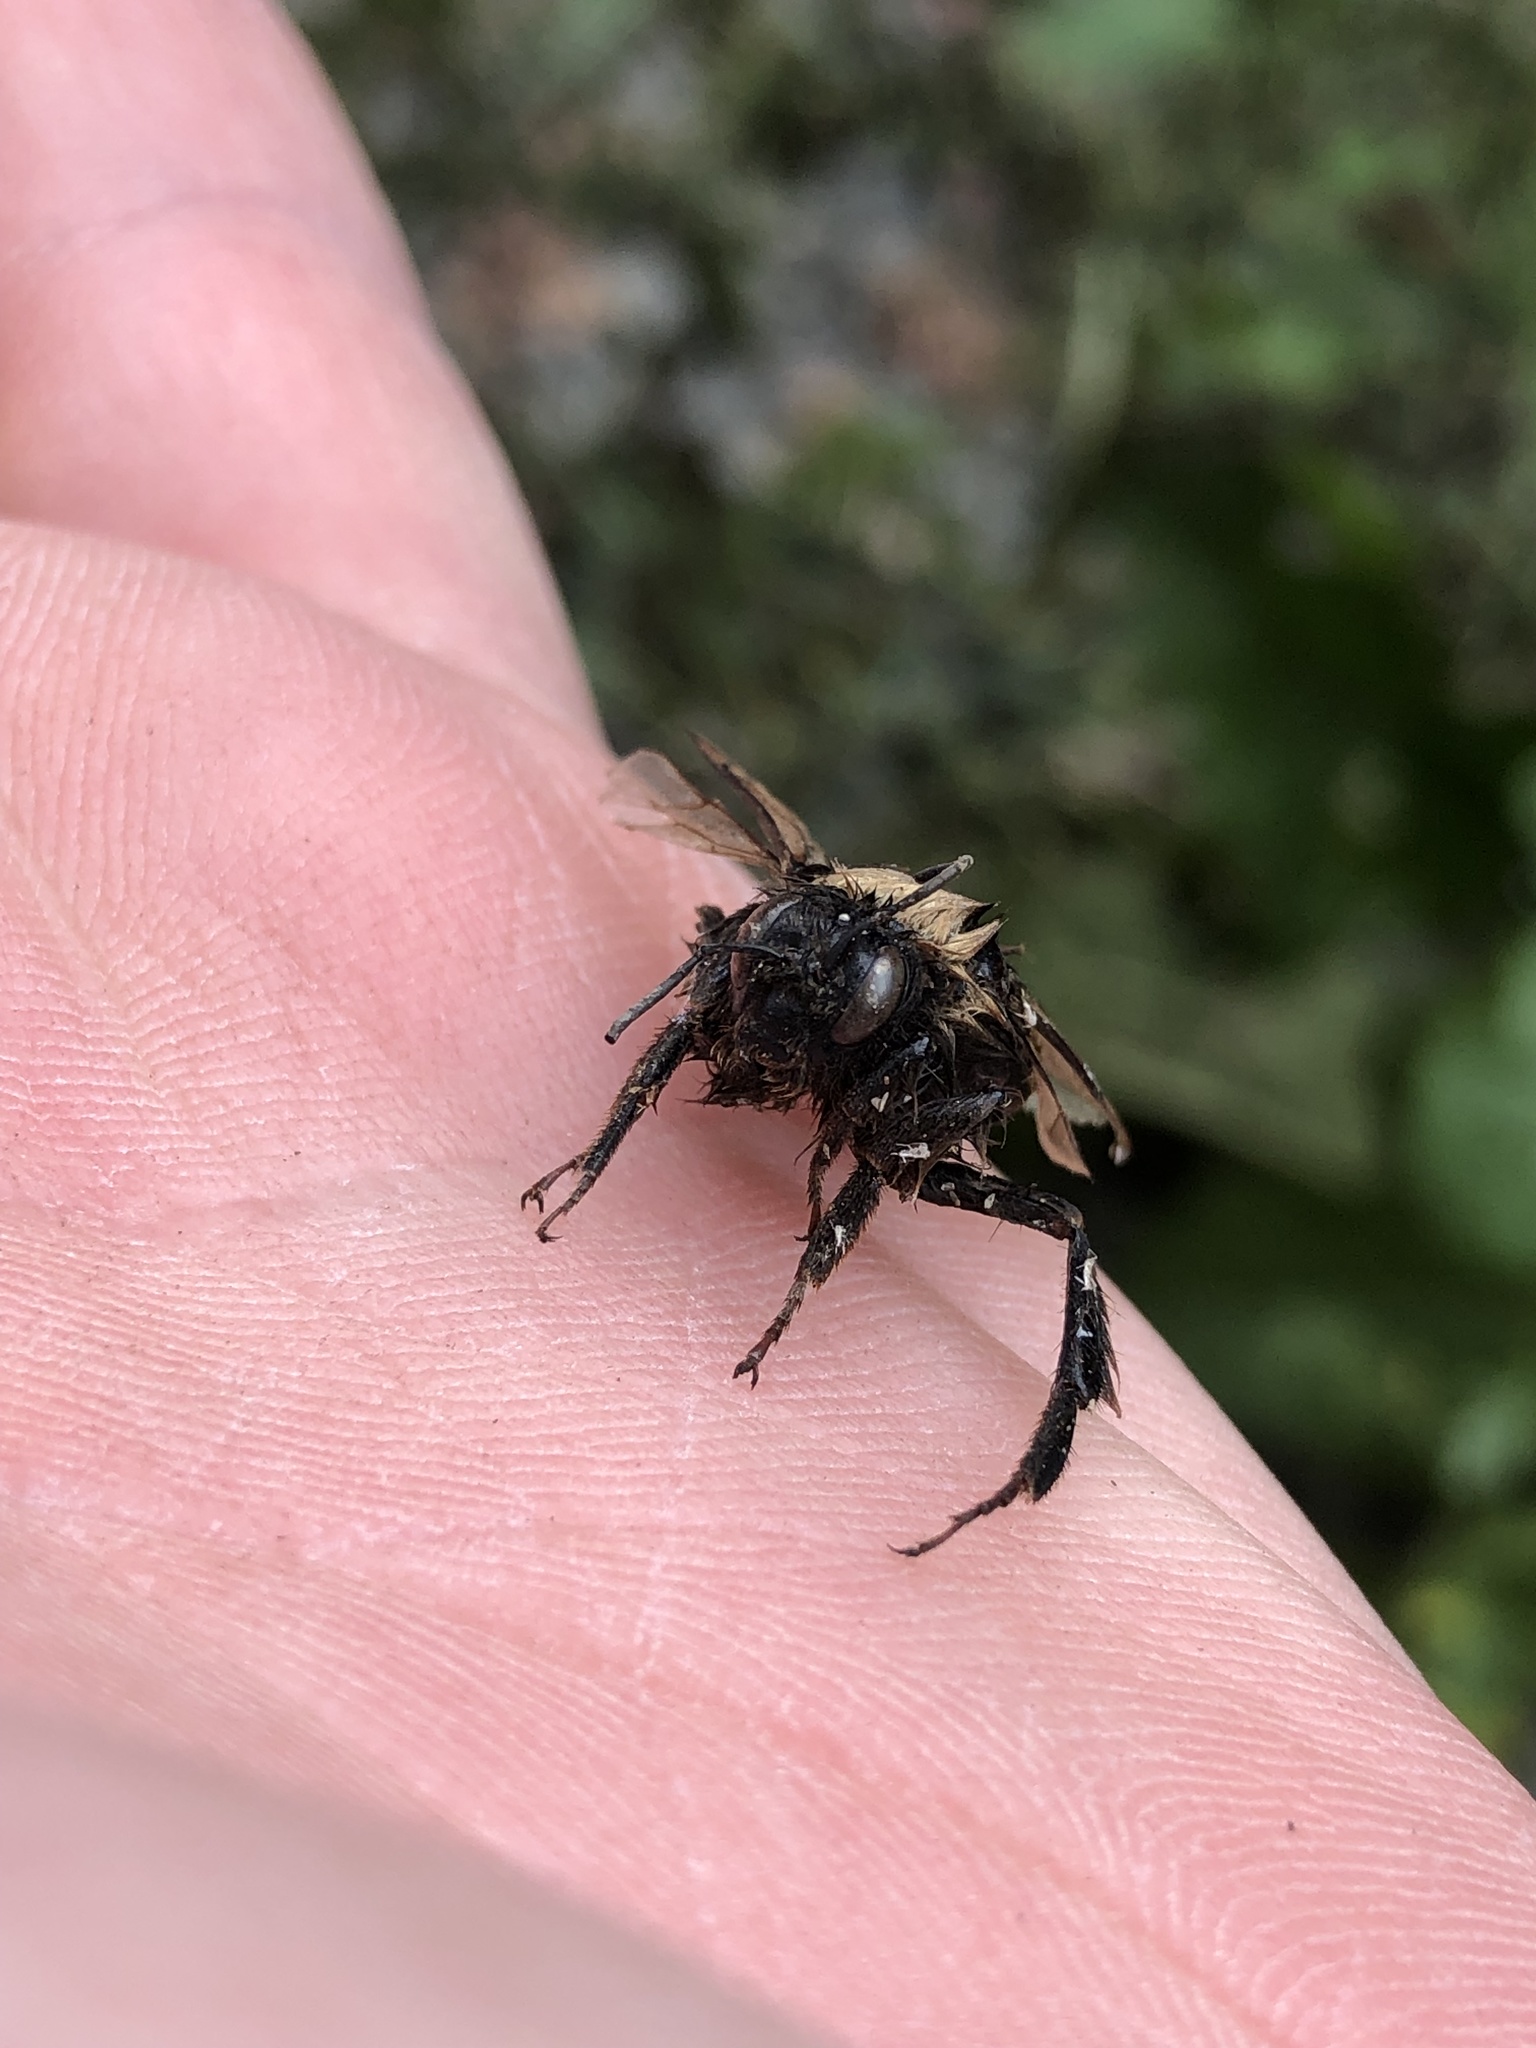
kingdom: Animalia
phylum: Arthropoda
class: Insecta
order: Hymenoptera
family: Apidae
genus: Bombus
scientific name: Bombus terrestris
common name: Buff-tailed bumblebee
